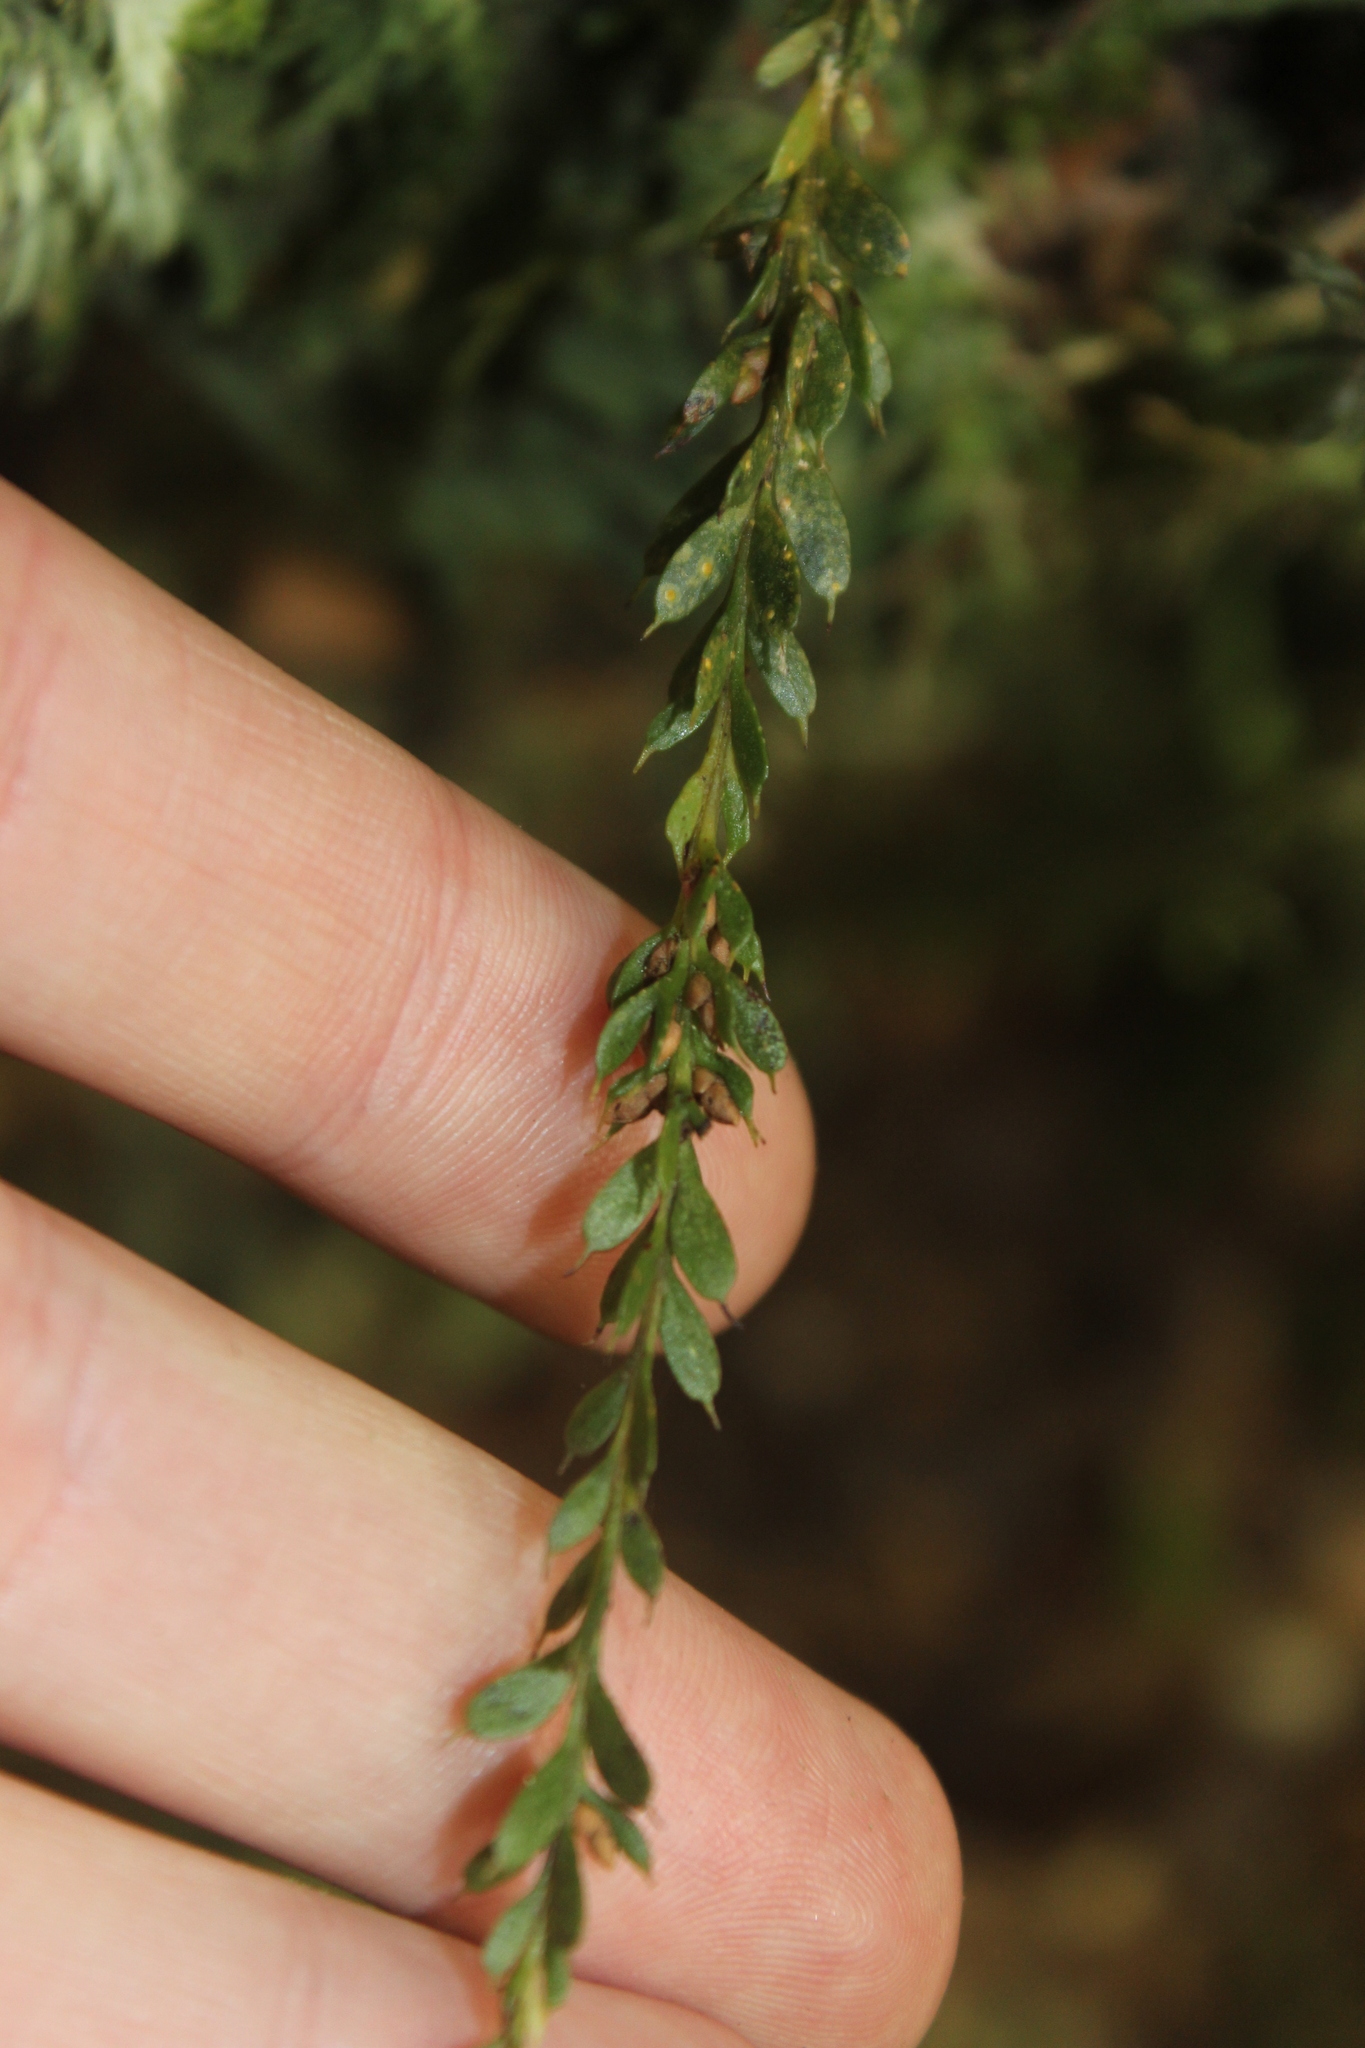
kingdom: Plantae
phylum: Tracheophyta
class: Polypodiopsida
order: Psilotales
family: Psilotaceae
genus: Tmesipteris
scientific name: Tmesipteris tannensis
